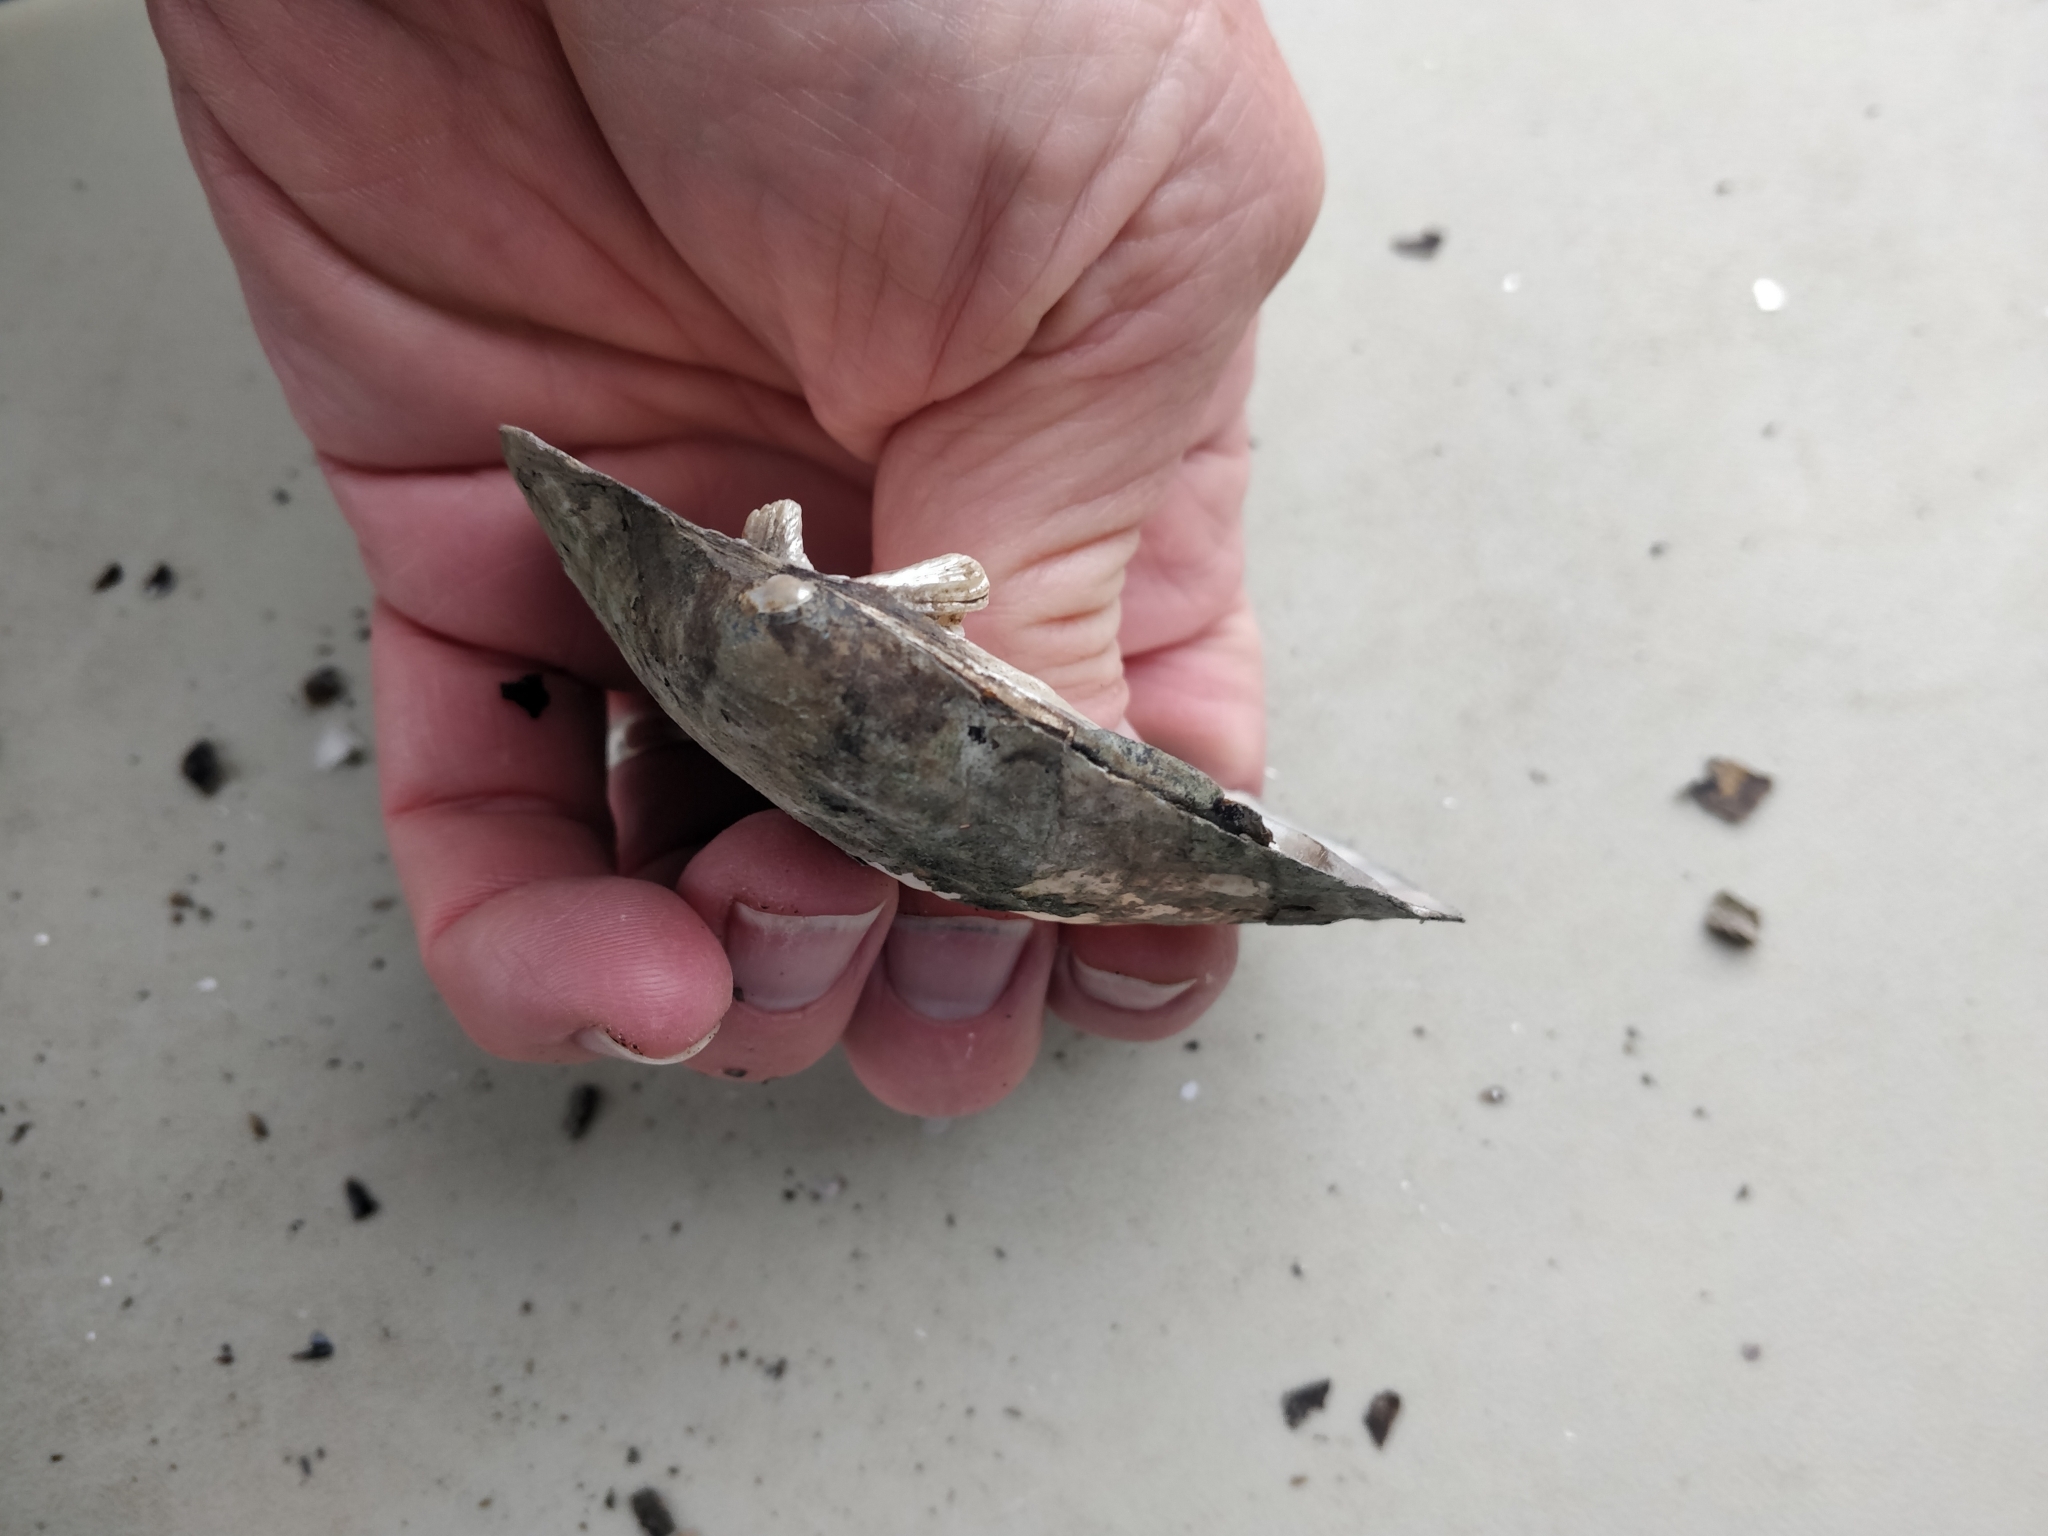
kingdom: Animalia
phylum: Mollusca
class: Bivalvia
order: Unionida
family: Unionidae
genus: Amblema
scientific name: Amblema plicata
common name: Threeridge
